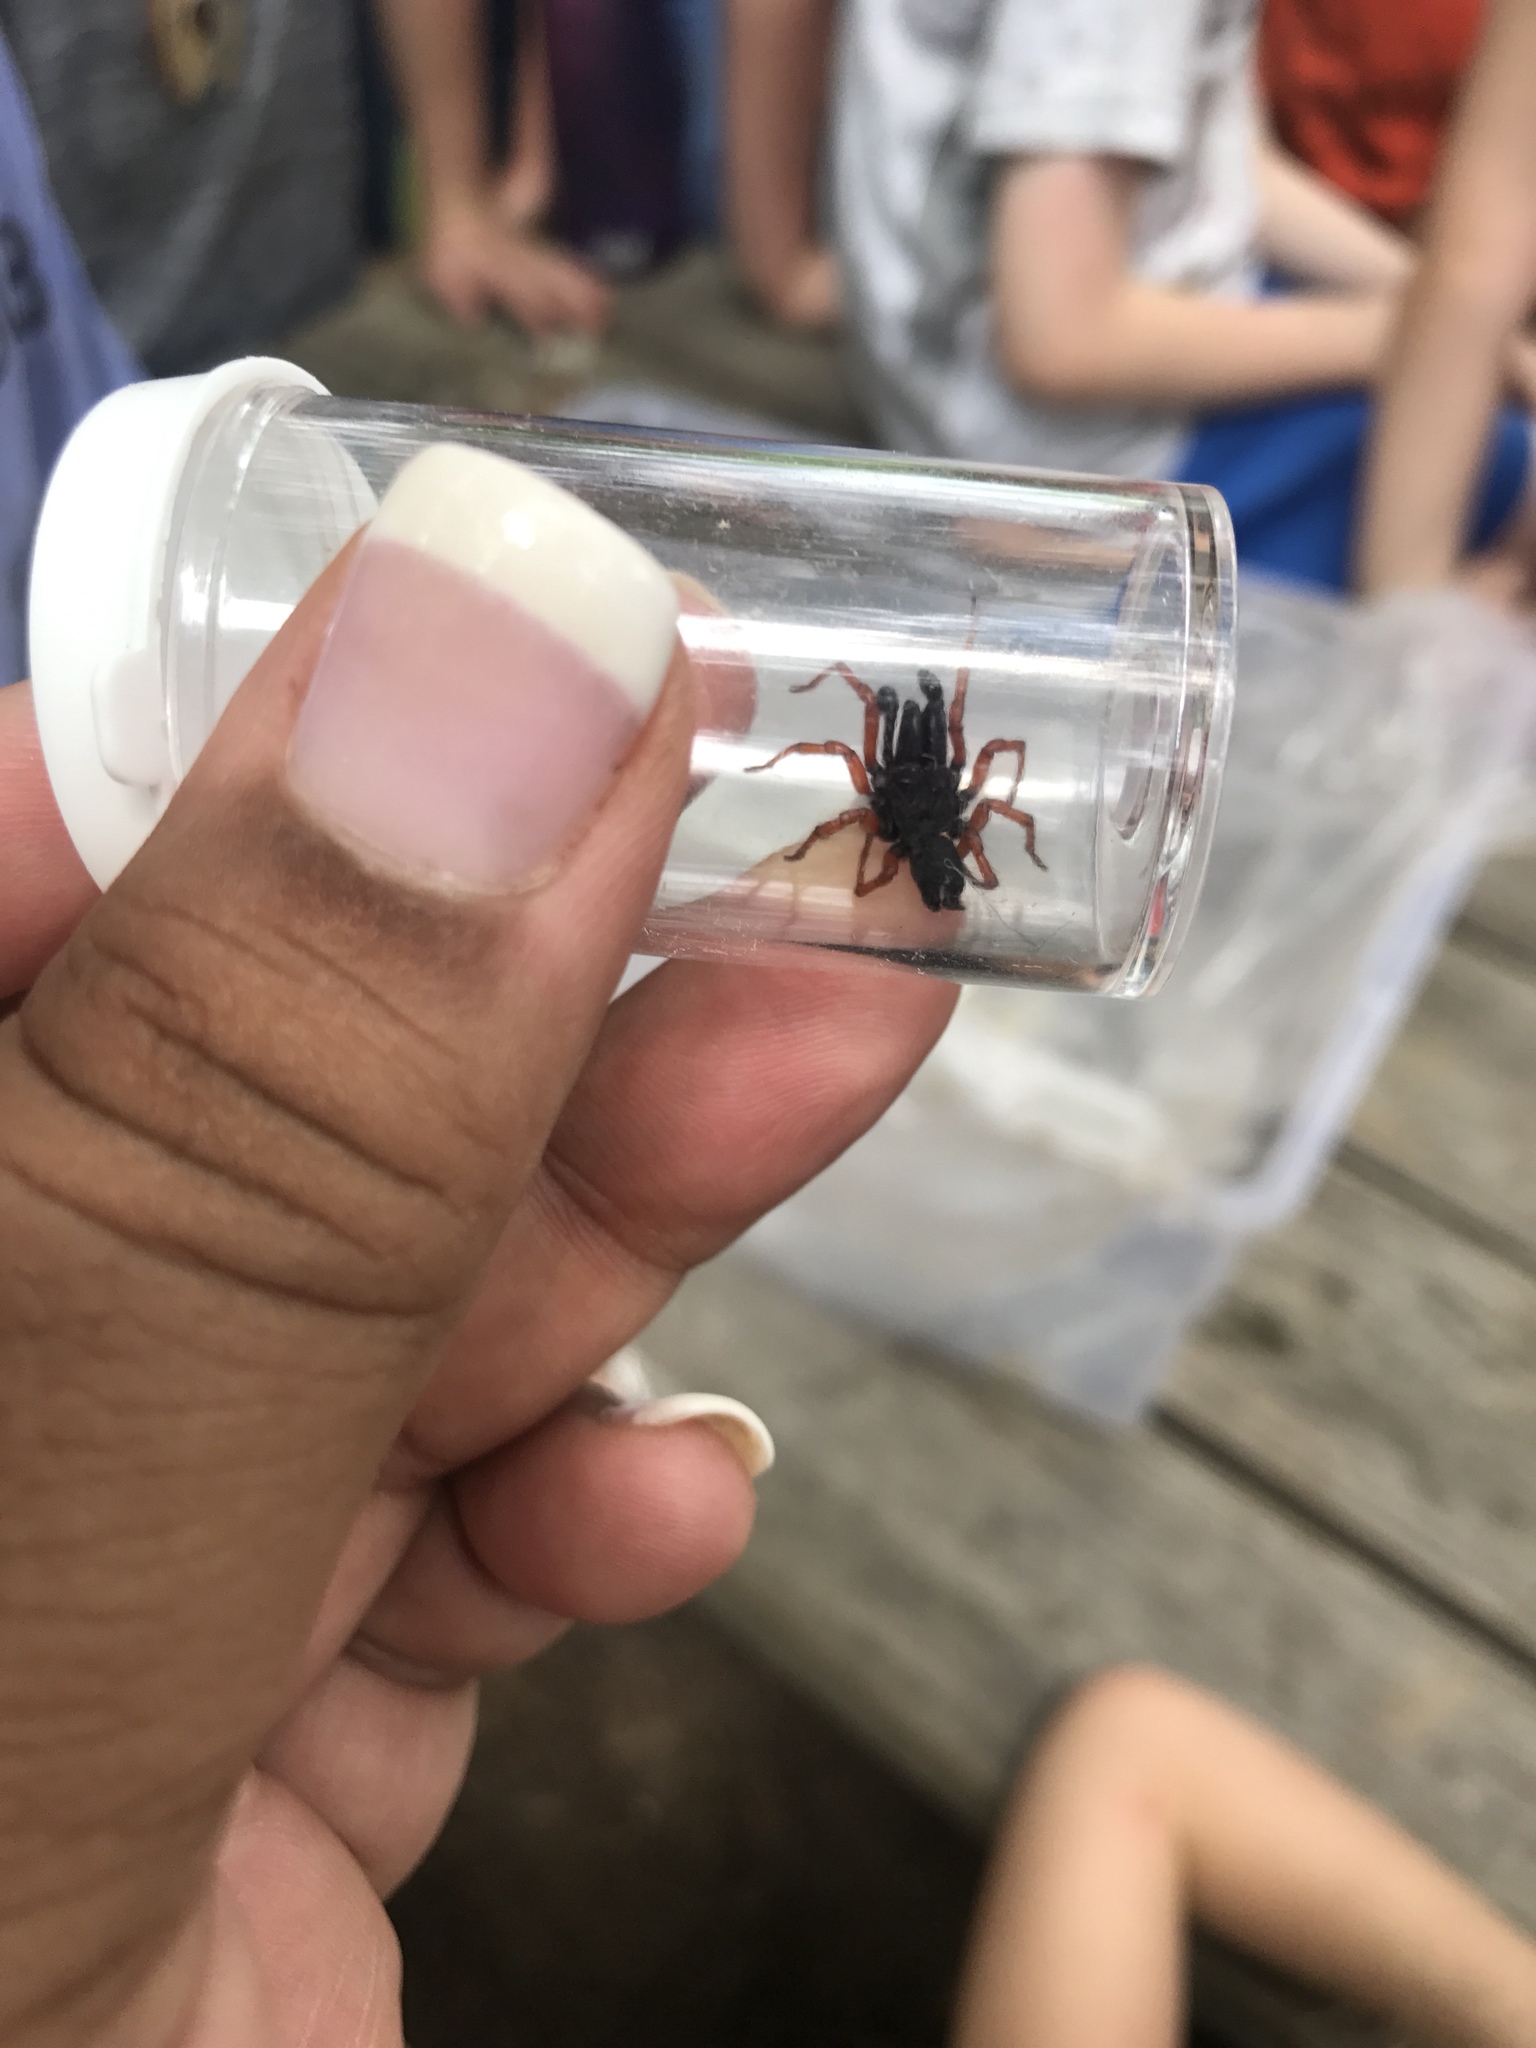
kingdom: Animalia
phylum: Arthropoda
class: Arachnida
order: Araneae
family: Atypidae
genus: Sphodros
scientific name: Sphodros rufipes
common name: Red-legged purseweb spider
